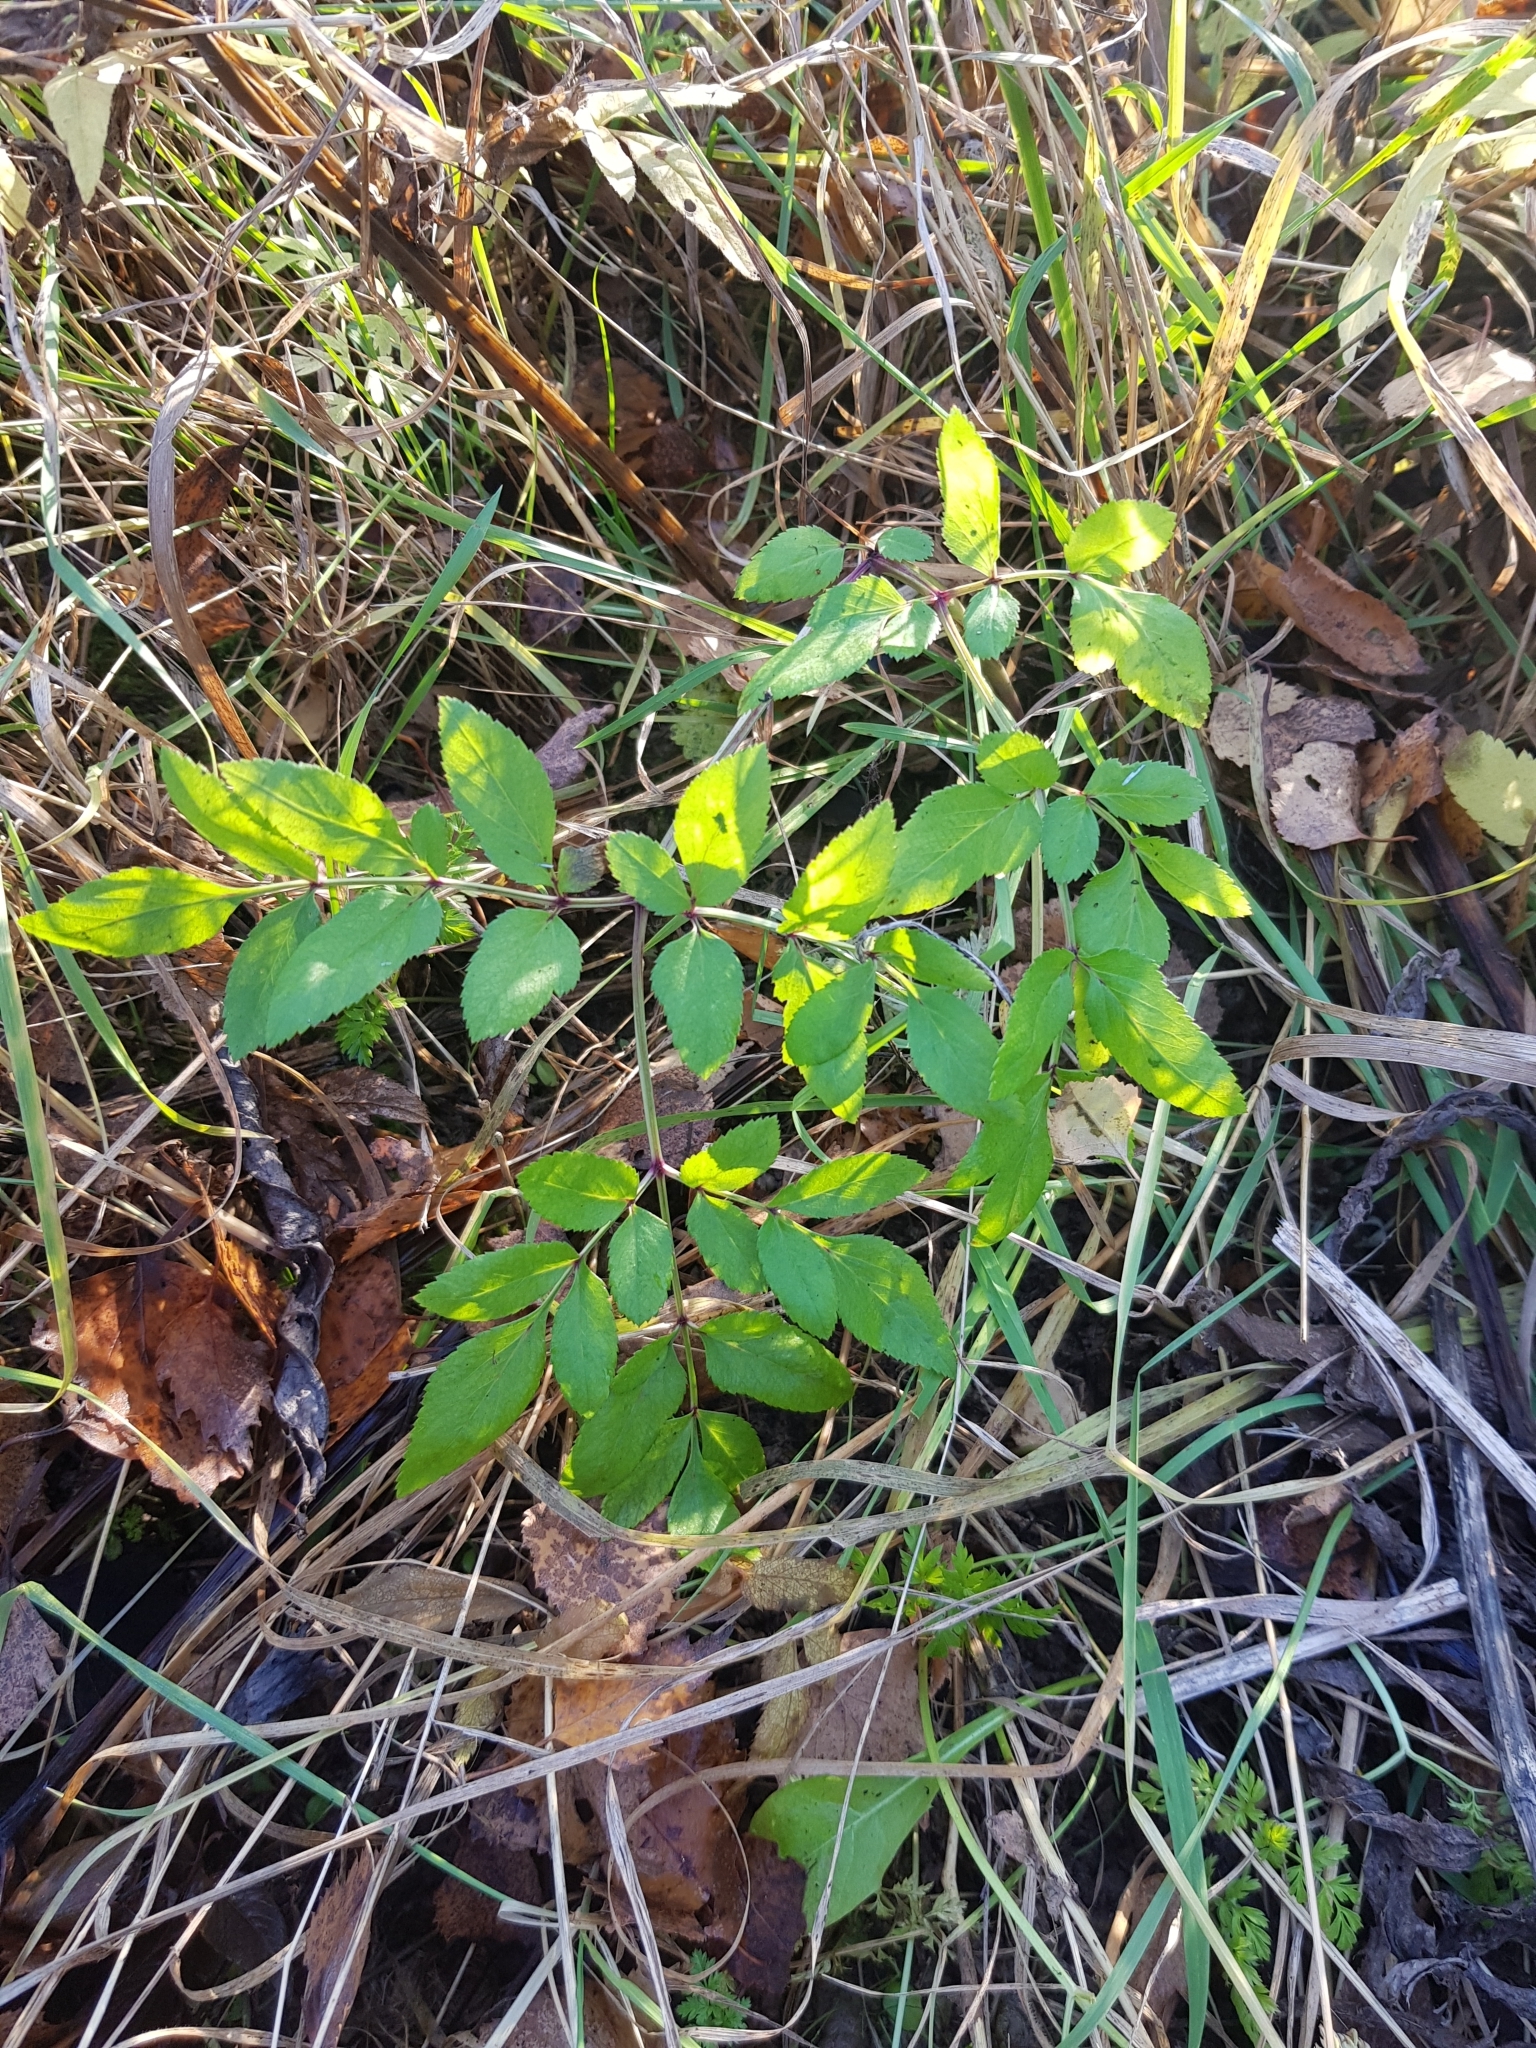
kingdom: Plantae
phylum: Tracheophyta
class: Magnoliopsida
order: Apiales
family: Apiaceae
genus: Angelica
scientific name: Angelica sylvestris
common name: Wild angelica
